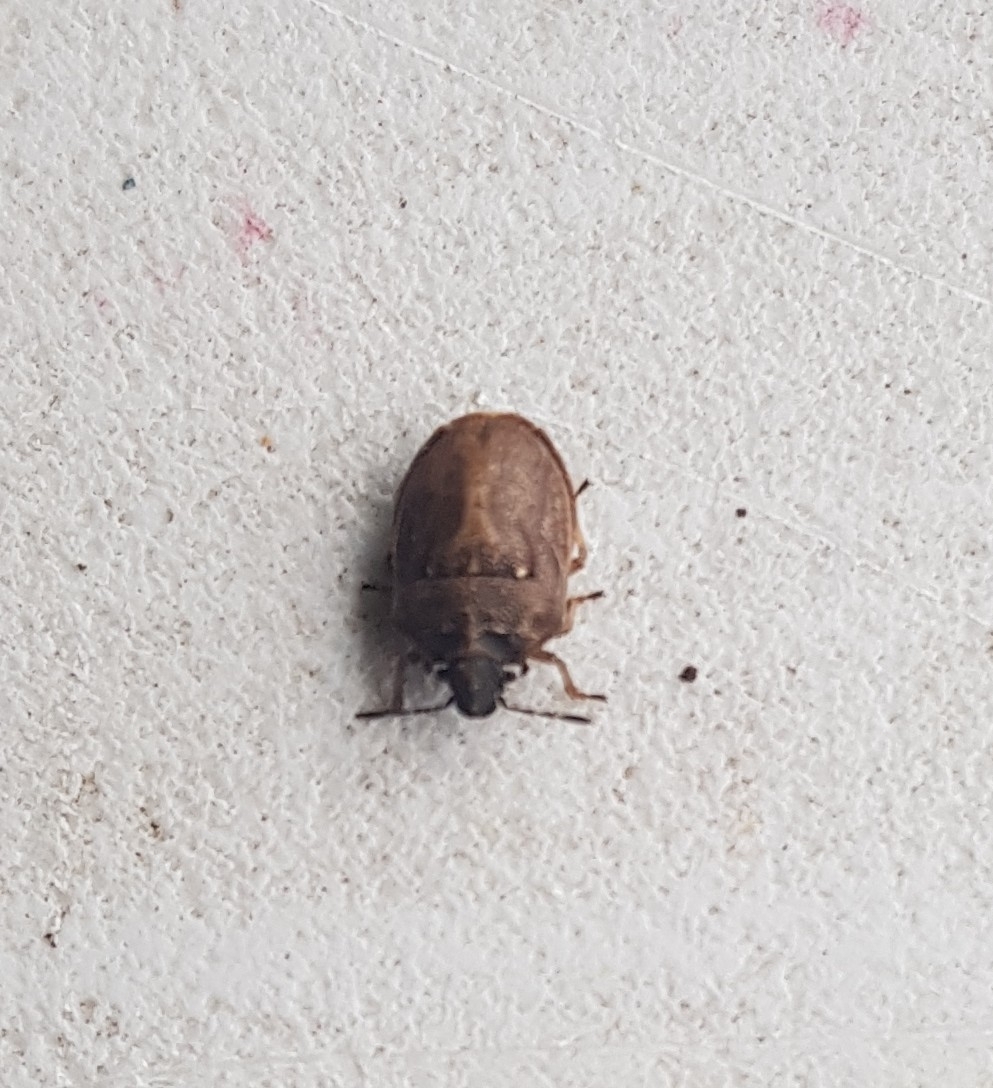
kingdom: Animalia
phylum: Arthropoda
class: Insecta
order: Hemiptera
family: Pentatomidae
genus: Podops
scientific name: Podops inunctus
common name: Turtle bug
